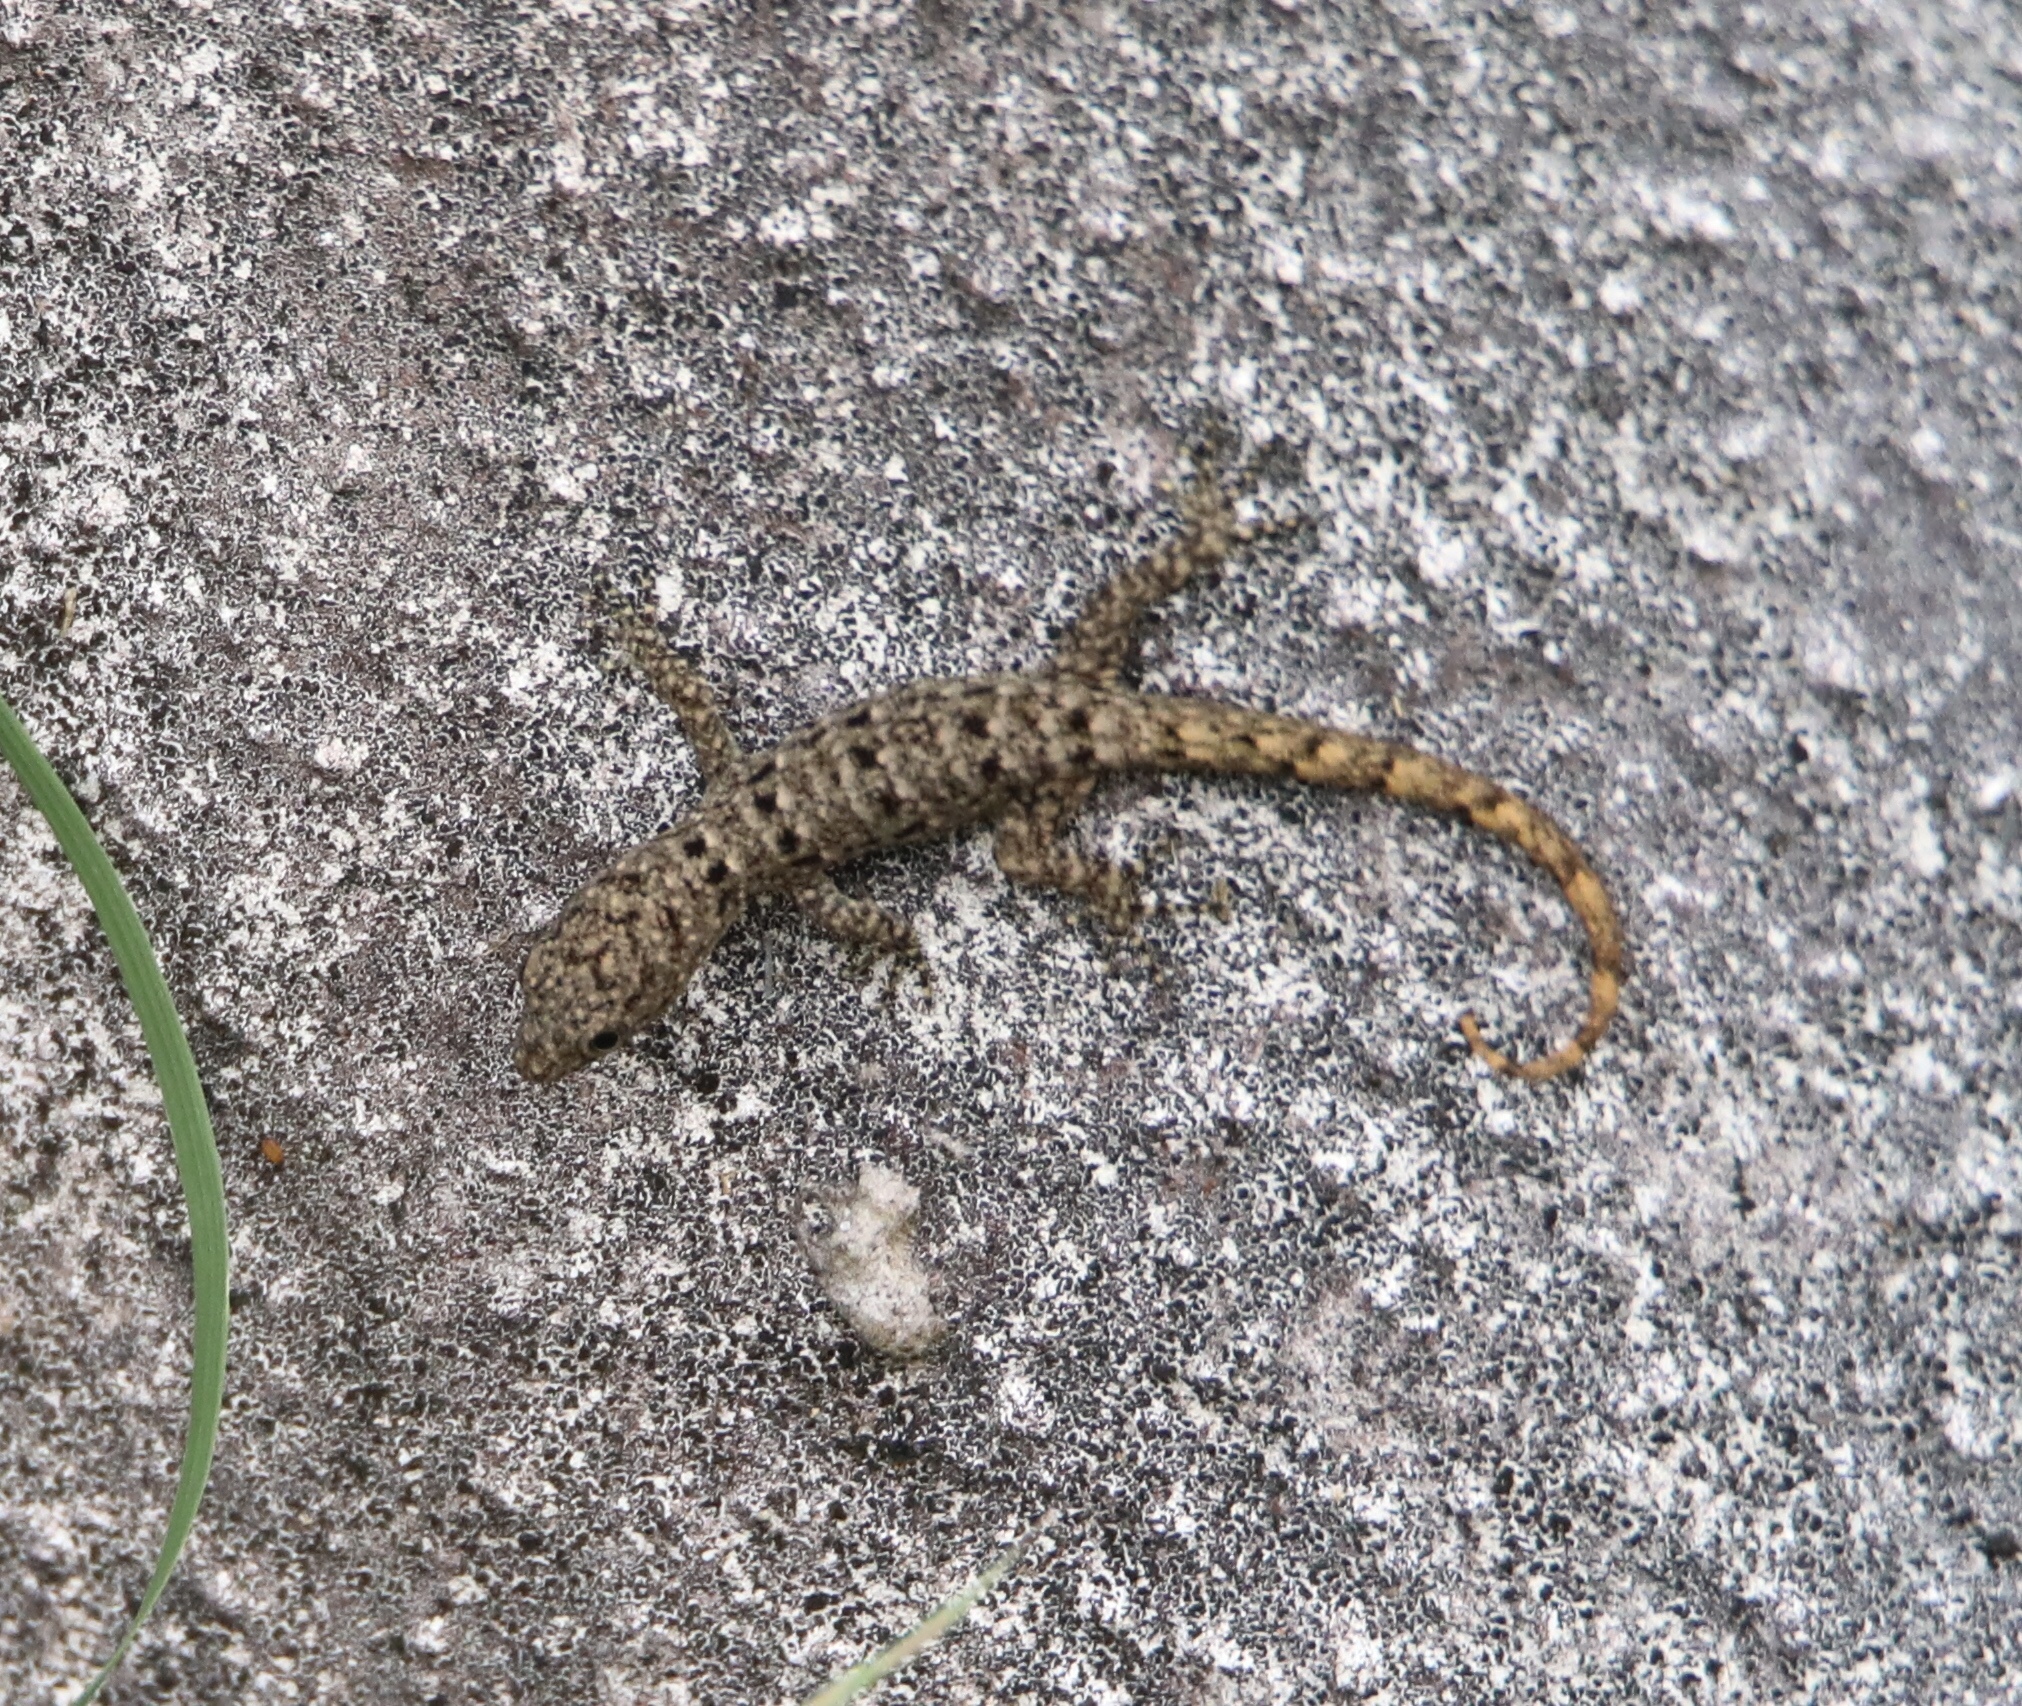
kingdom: Animalia
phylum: Chordata
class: Squamata
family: Sphaerodactylidae
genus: Gonatodes
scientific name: Gonatodes albogularis
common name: Yellow-headed gecko
